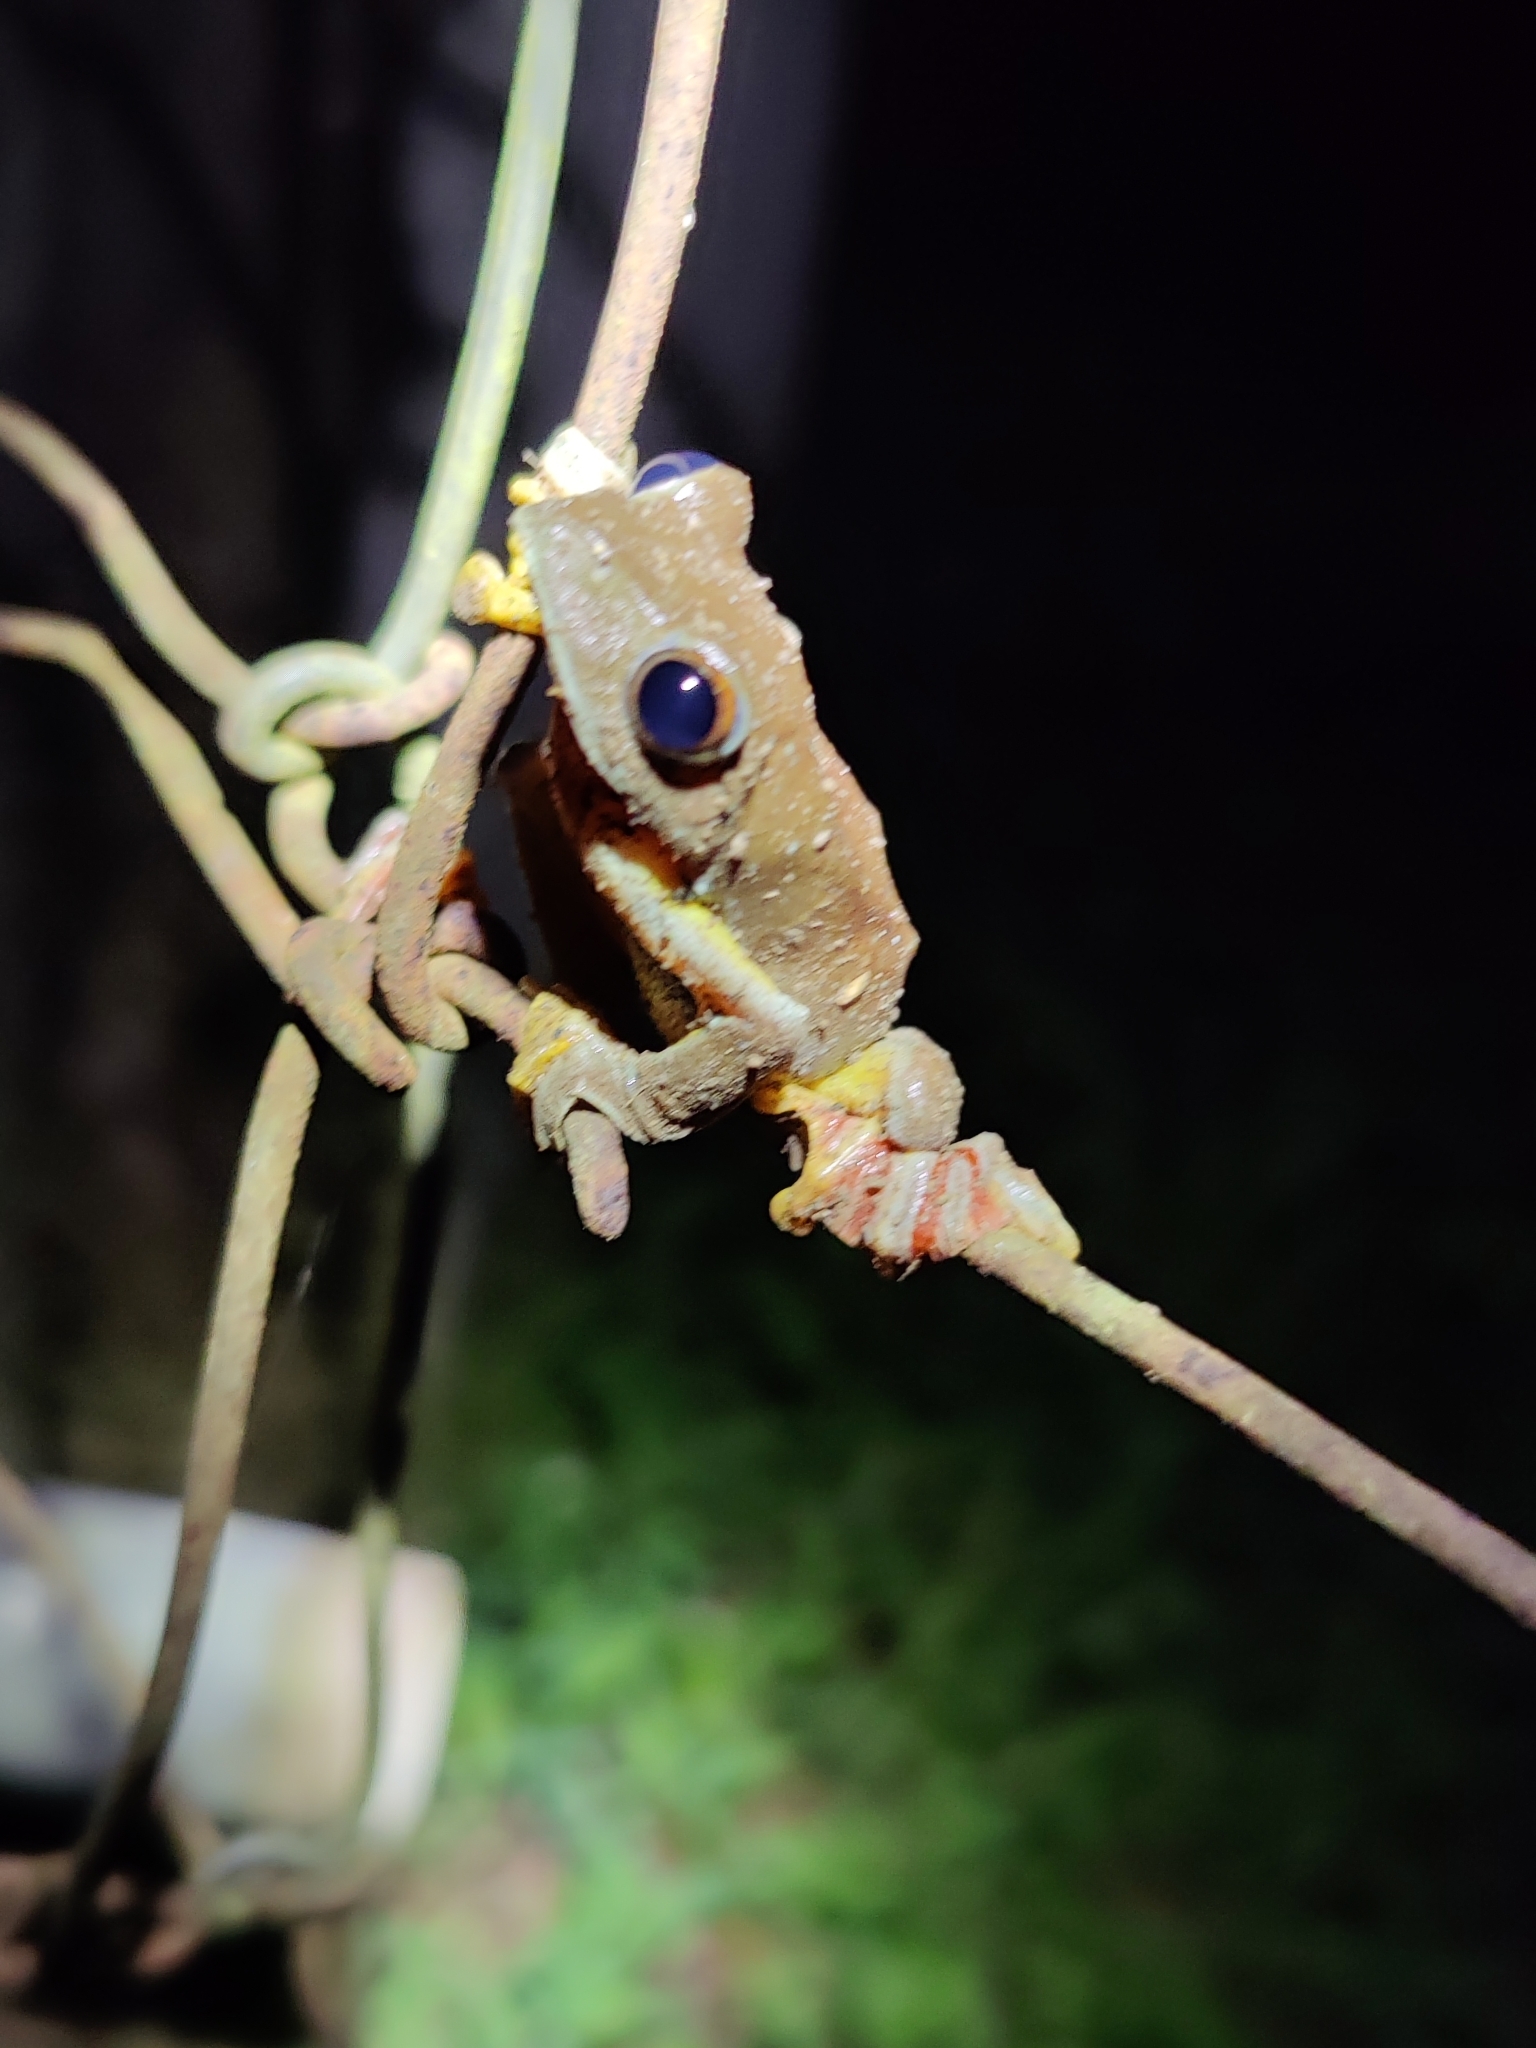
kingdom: Animalia
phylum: Chordata
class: Amphibia
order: Anura
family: Rhacophoridae
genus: Rhacophorus
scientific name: Rhacophorus subansiriensis
